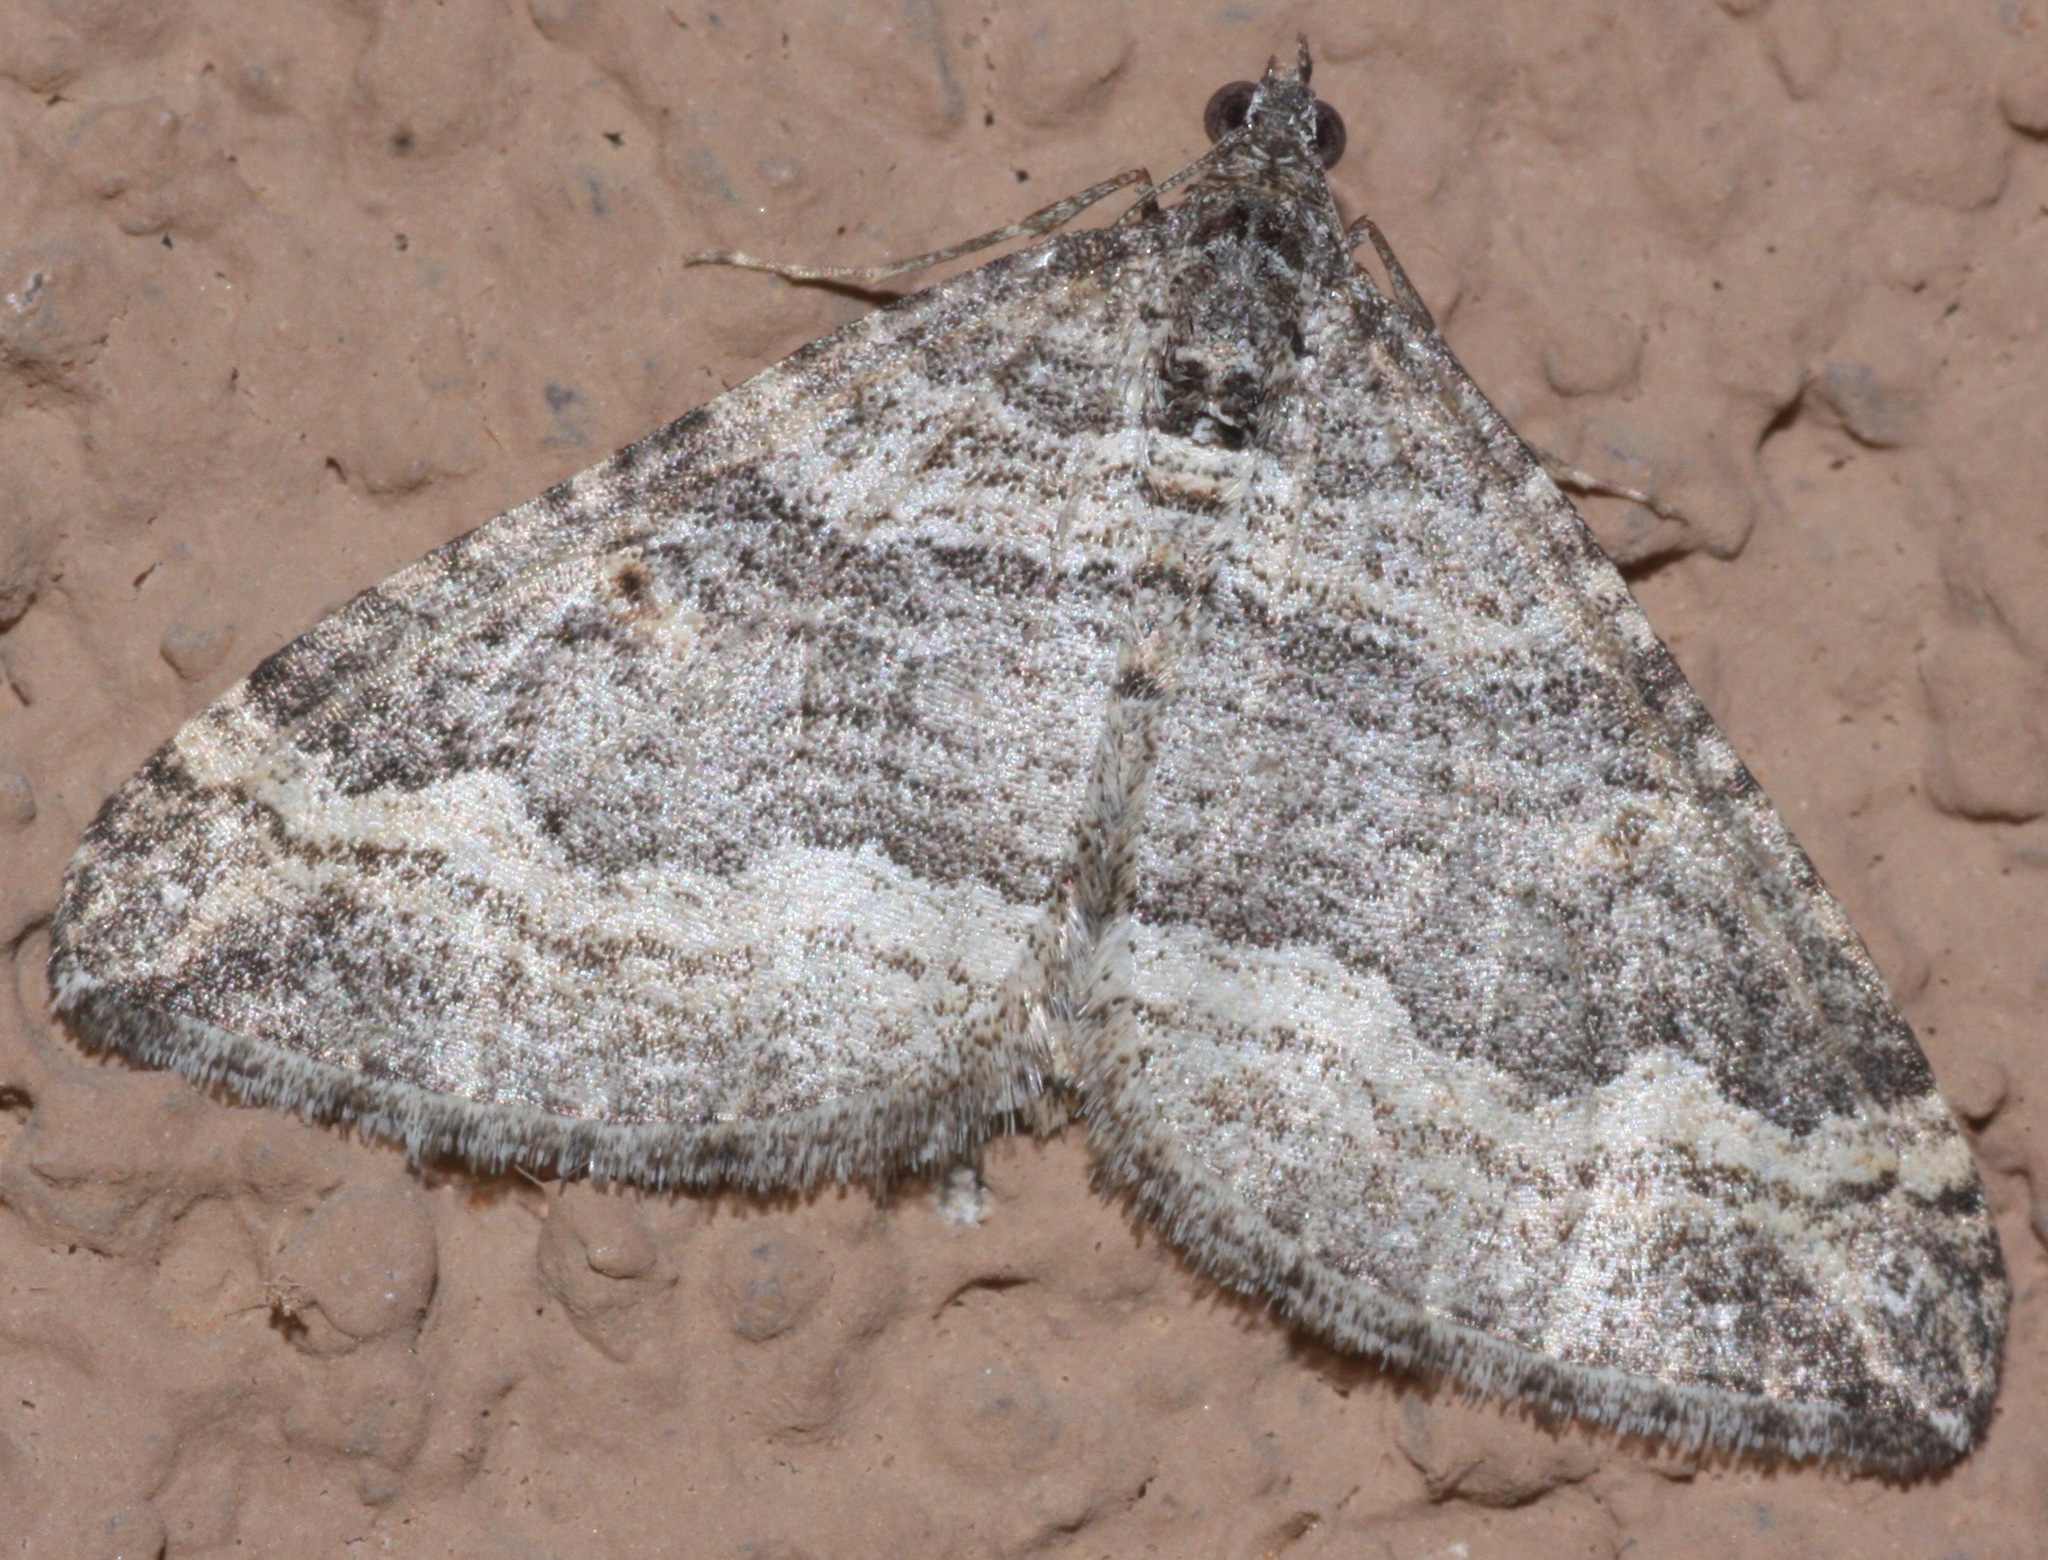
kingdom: Animalia
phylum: Arthropoda
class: Insecta
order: Lepidoptera
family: Geometridae
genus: Perizoma
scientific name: Perizoma custodiata
